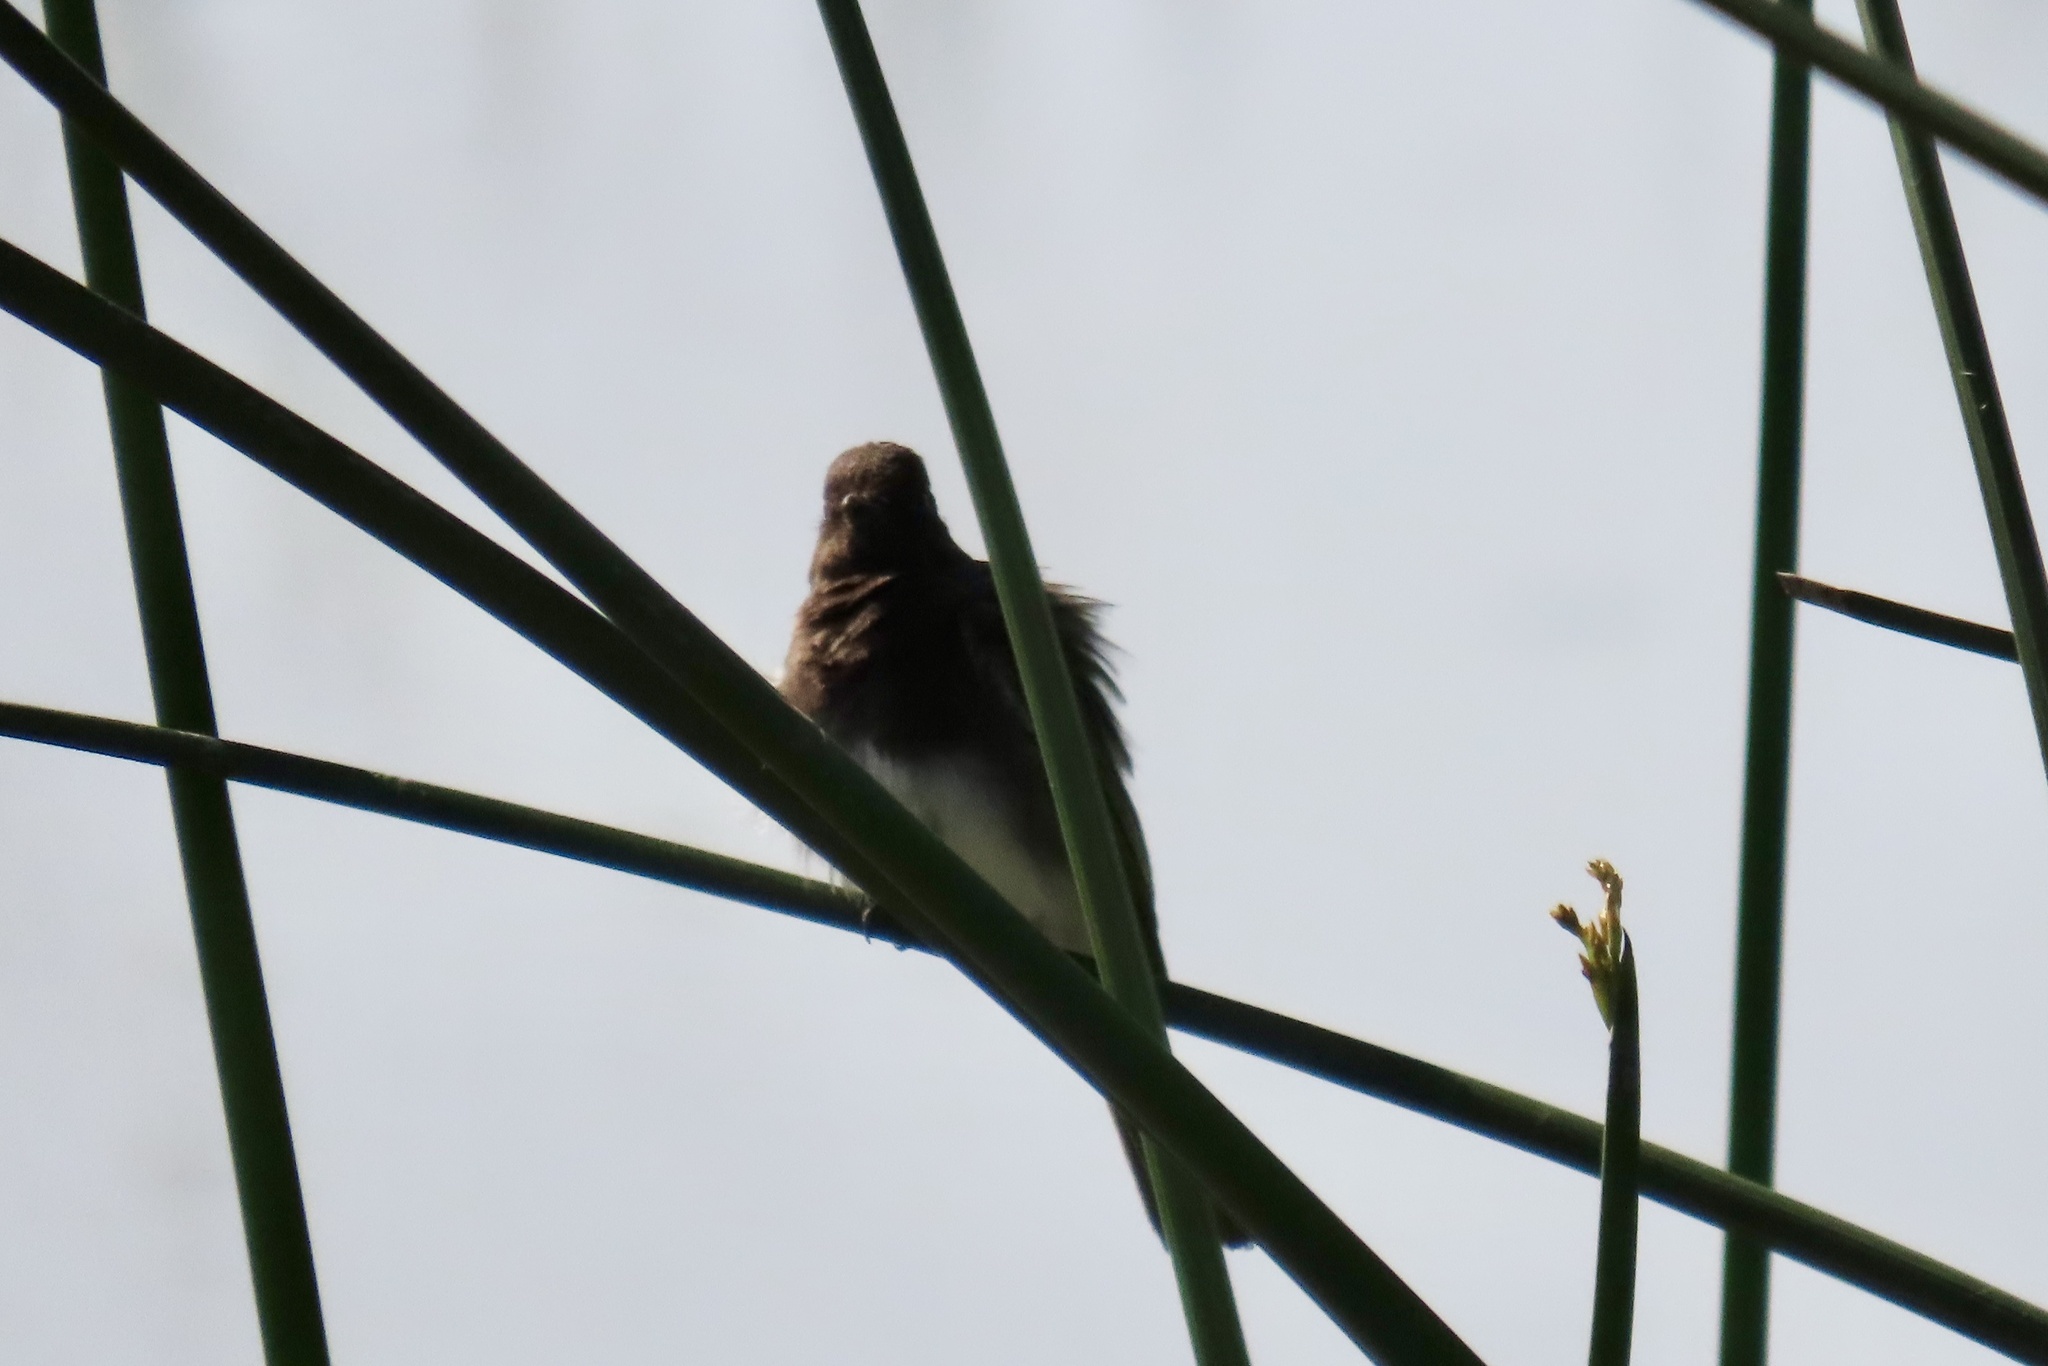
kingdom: Animalia
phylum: Chordata
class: Aves
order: Passeriformes
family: Tyrannidae
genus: Sayornis
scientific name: Sayornis nigricans
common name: Black phoebe
